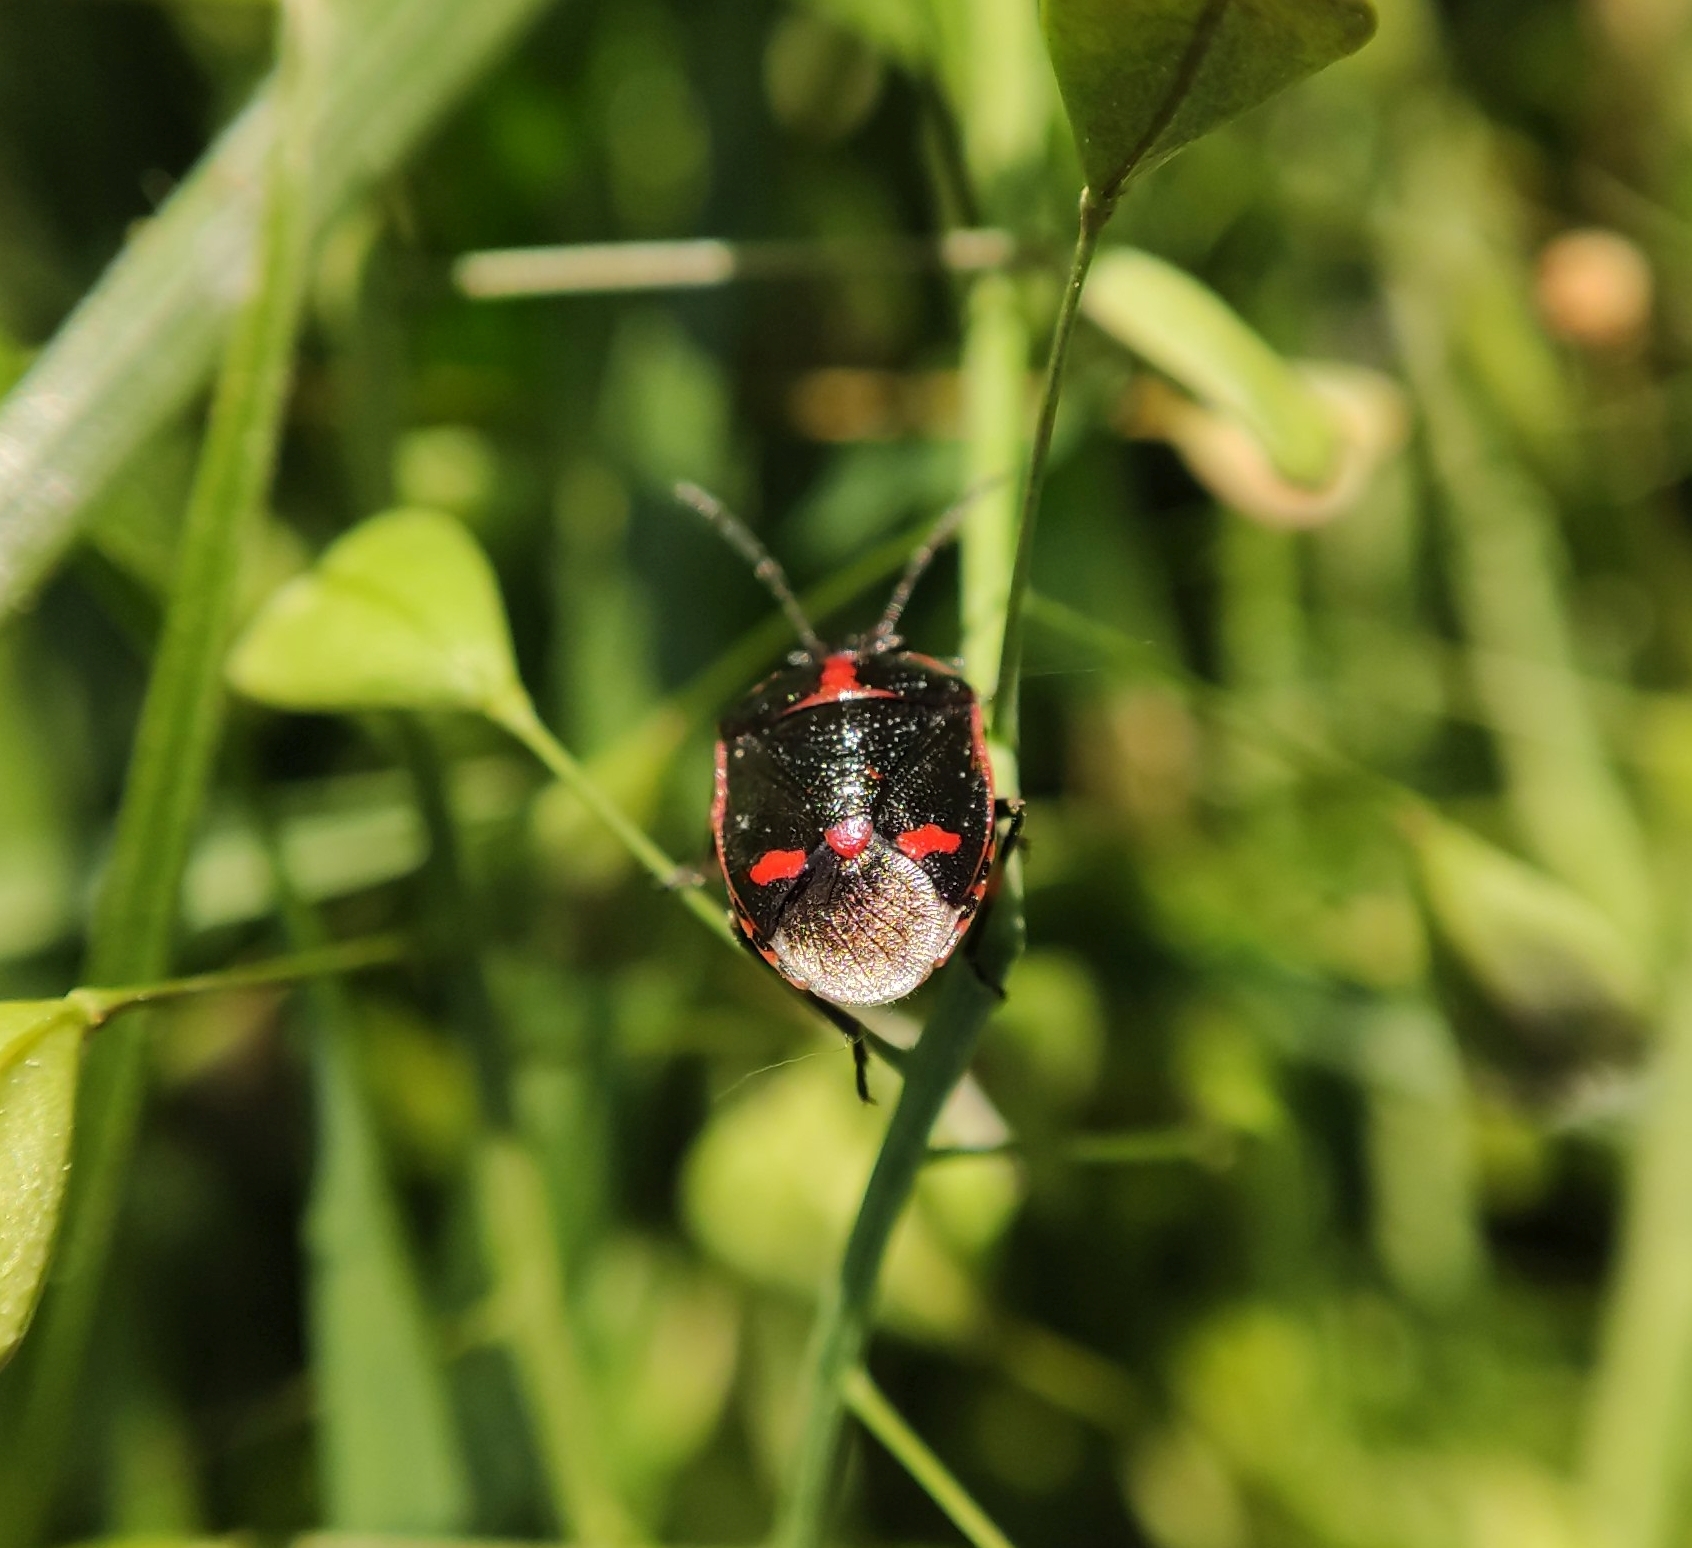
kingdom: Animalia
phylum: Arthropoda
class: Insecta
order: Hemiptera
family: Pentatomidae
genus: Eurydema
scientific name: Eurydema oleracea
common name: Cabbage bug
